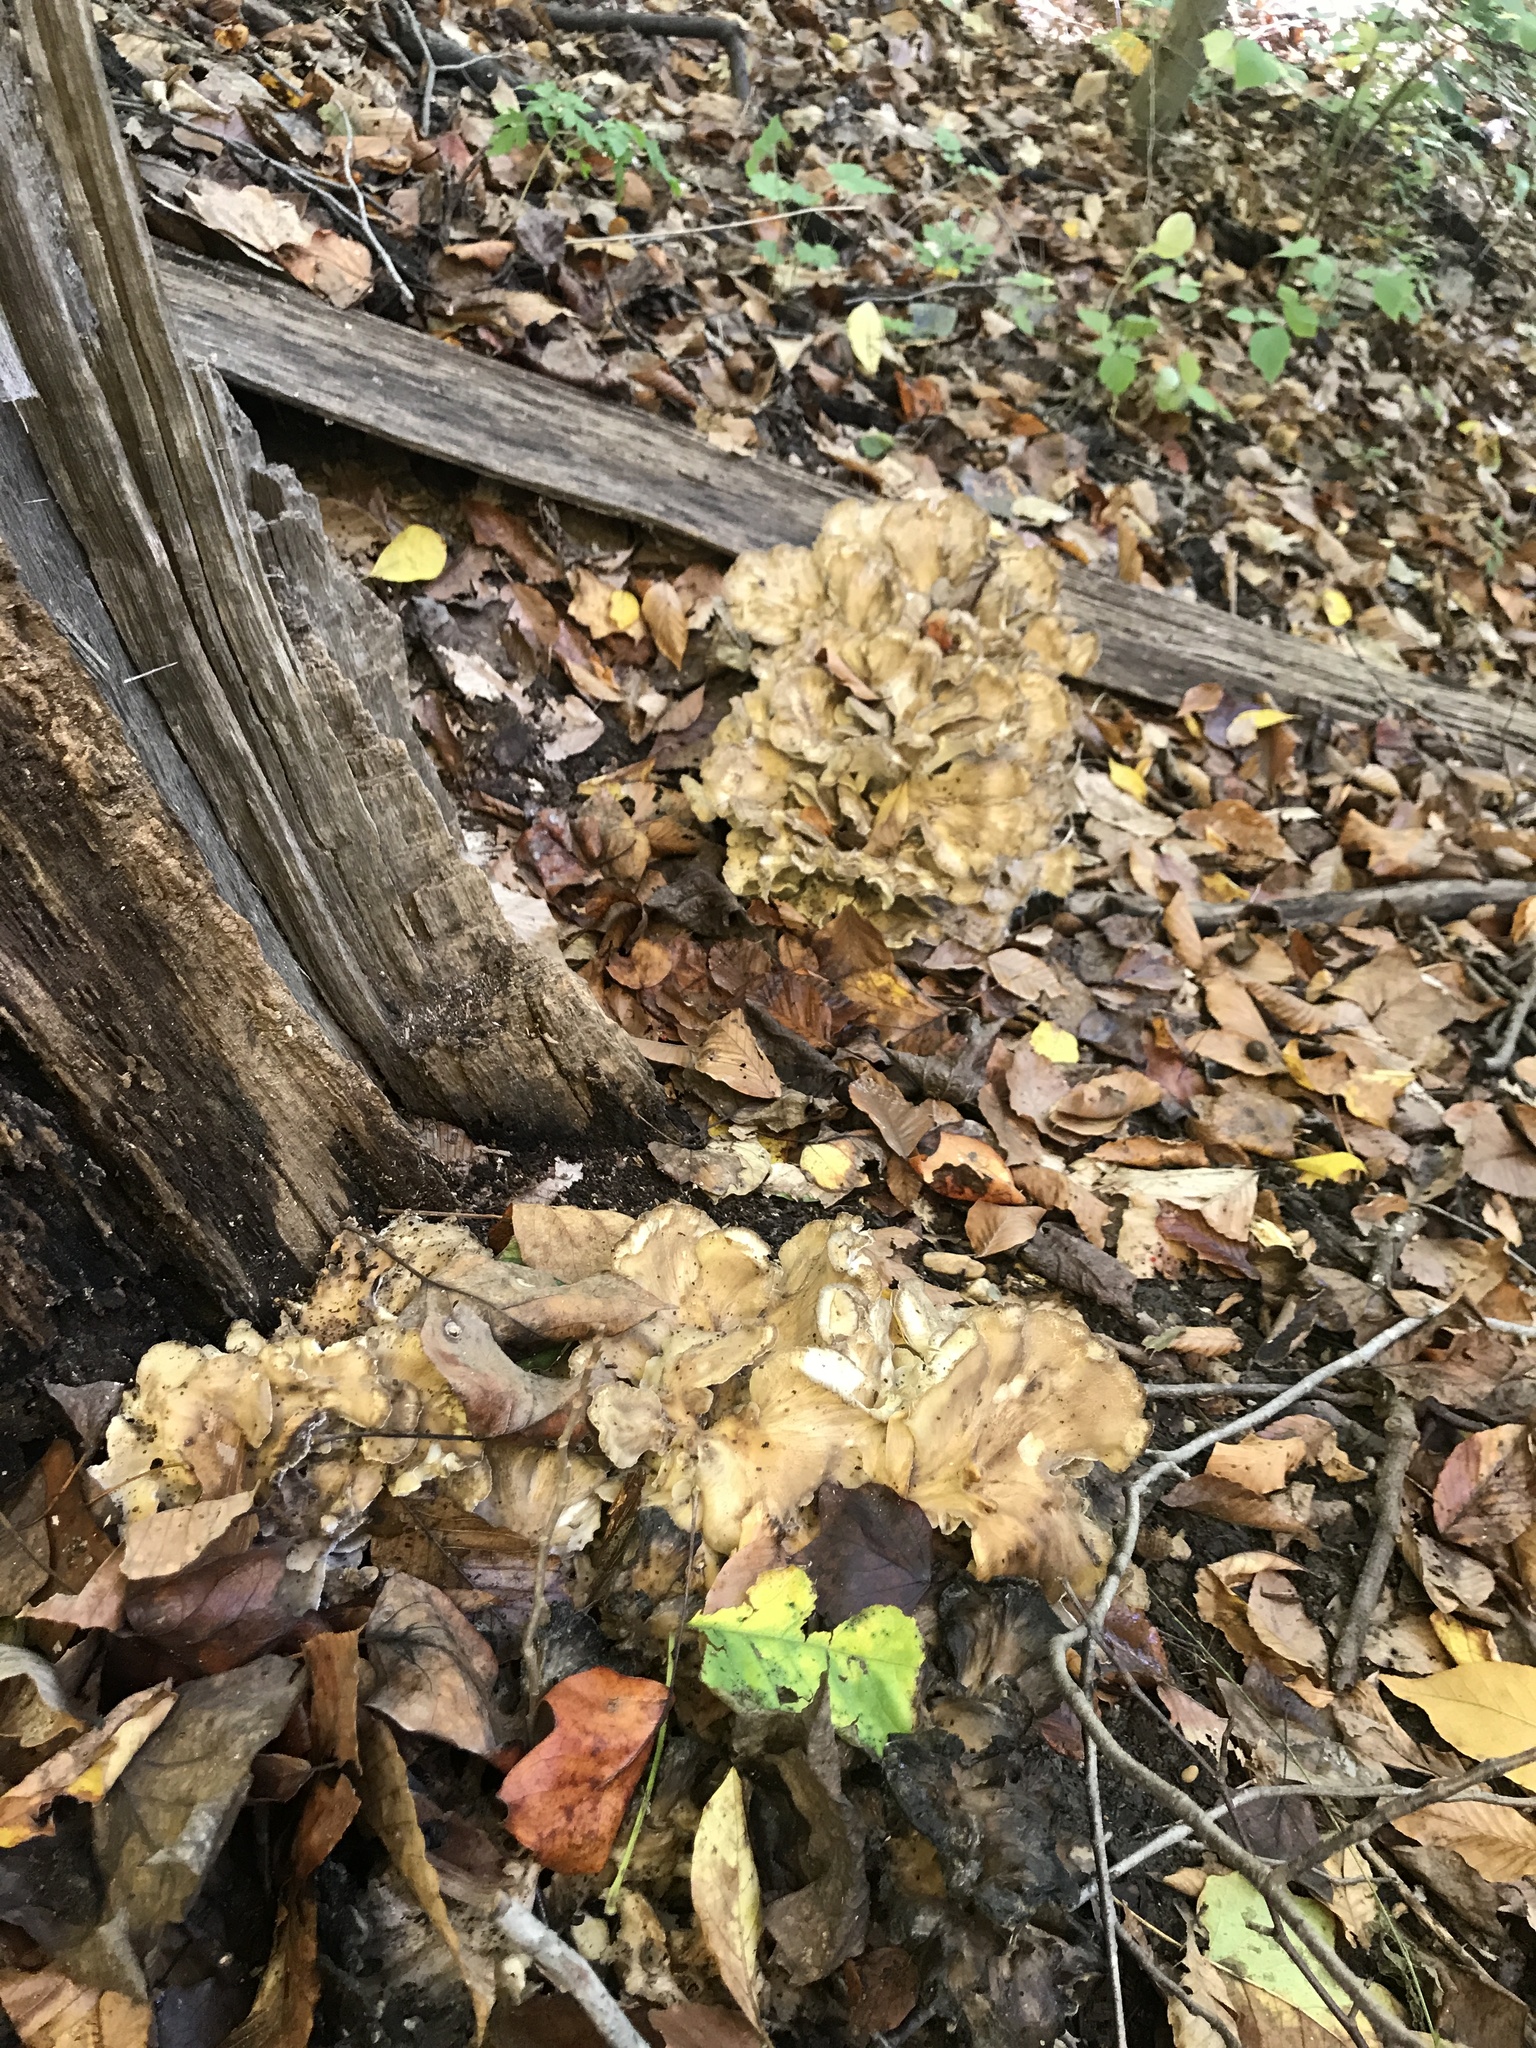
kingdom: Fungi
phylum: Basidiomycota
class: Agaricomycetes
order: Polyporales
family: Grifolaceae
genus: Grifola
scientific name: Grifola frondosa
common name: Hen of the woods
